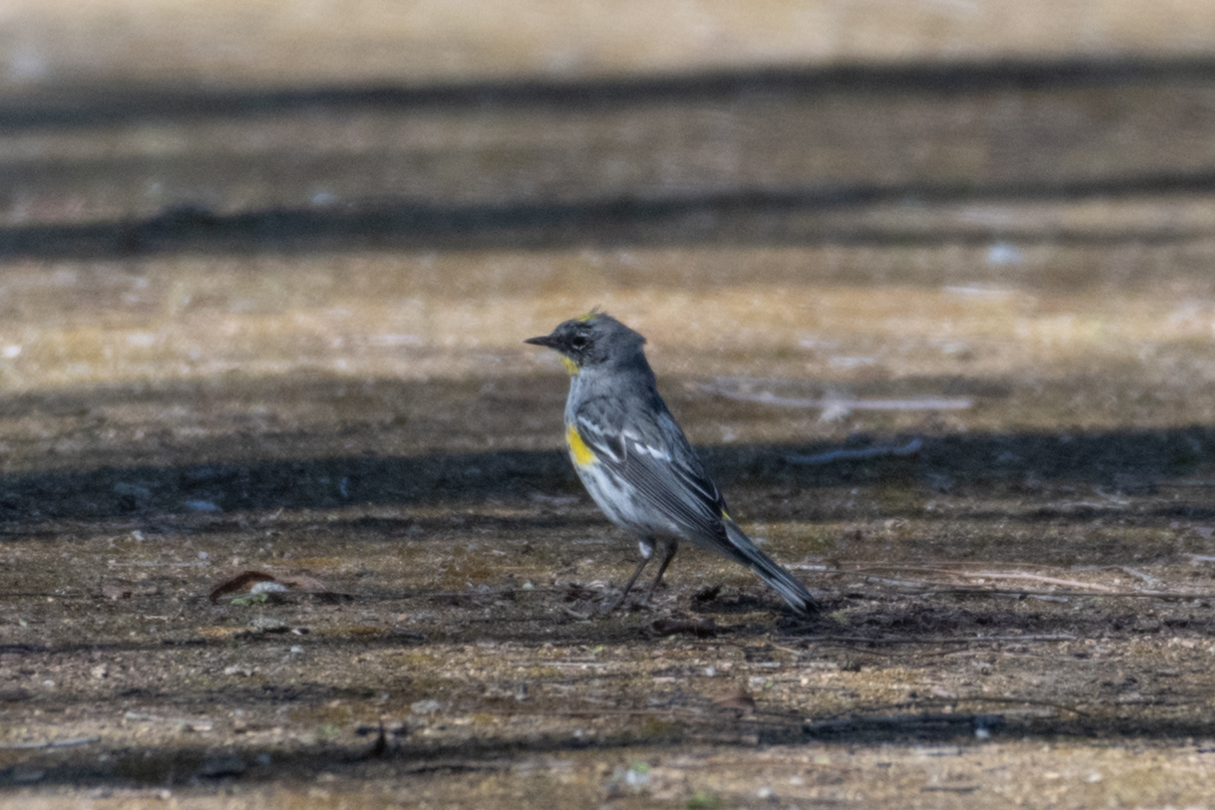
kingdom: Animalia
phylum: Chordata
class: Aves
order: Passeriformes
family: Parulidae
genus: Setophaga
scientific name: Setophaga coronata
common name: Myrtle warbler
